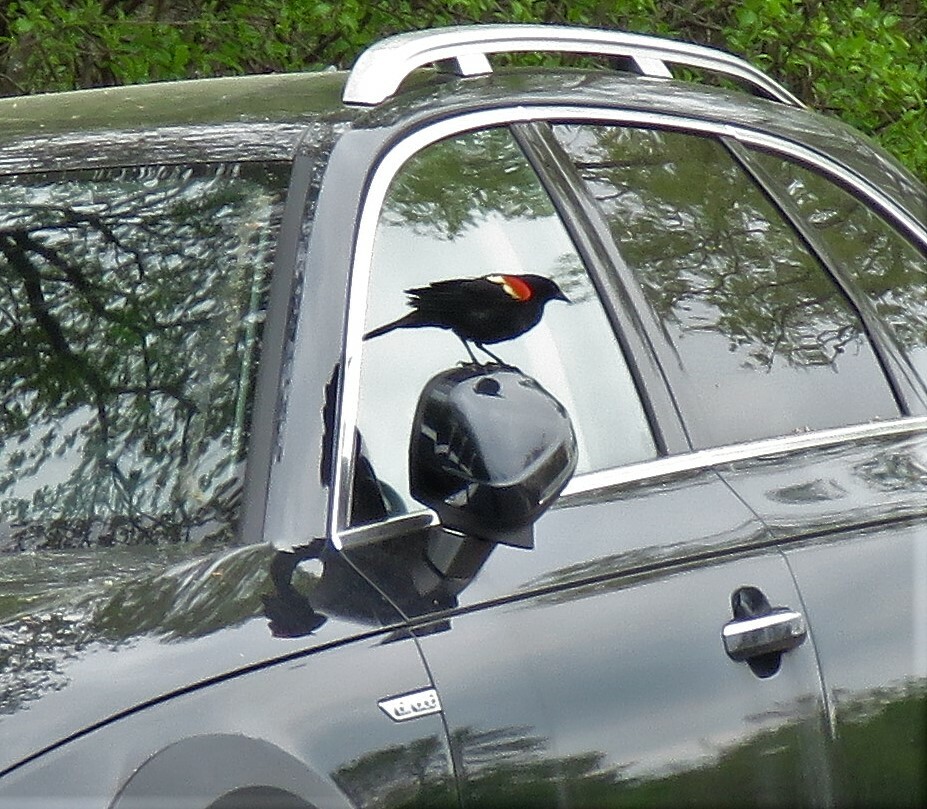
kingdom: Animalia
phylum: Chordata
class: Aves
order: Passeriformes
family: Icteridae
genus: Agelaius
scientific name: Agelaius phoeniceus
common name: Red-winged blackbird
